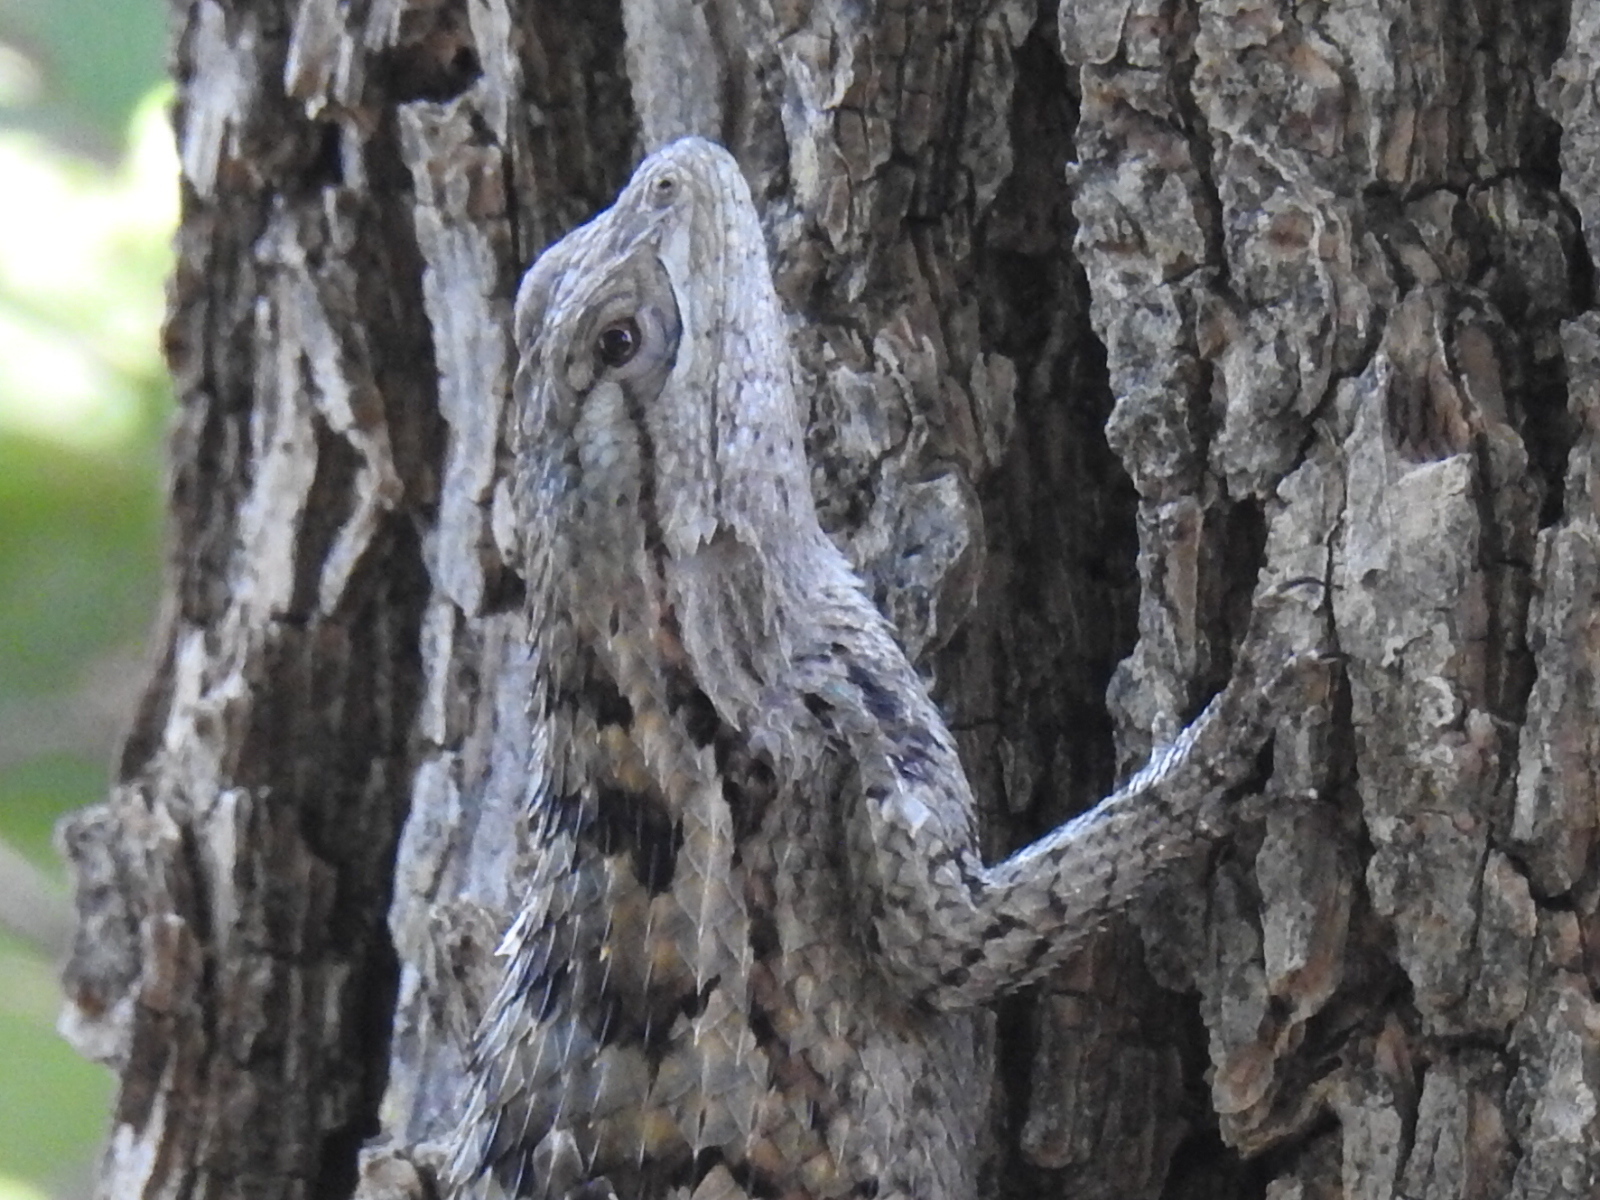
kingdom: Animalia
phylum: Chordata
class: Squamata
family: Phrynosomatidae
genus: Sceloporus
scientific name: Sceloporus olivaceus
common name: Texas spiny lizard
